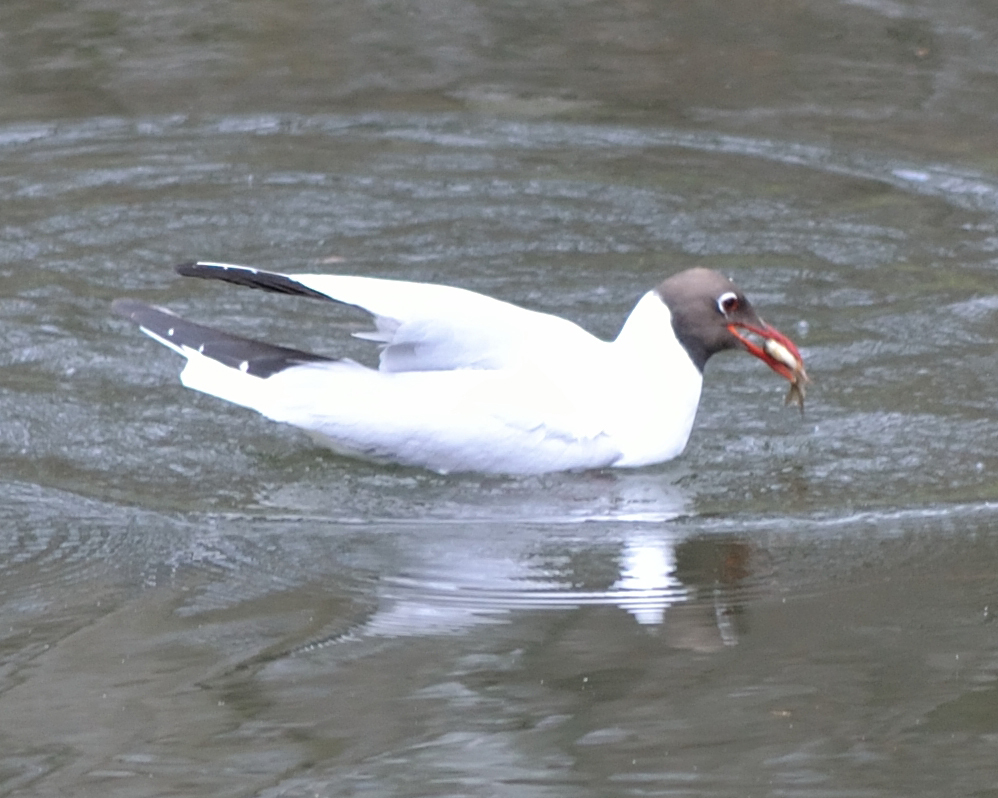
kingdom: Animalia
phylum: Chordata
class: Aves
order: Charadriiformes
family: Laridae
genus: Chroicocephalus
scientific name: Chroicocephalus ridibundus
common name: Black-headed gull
